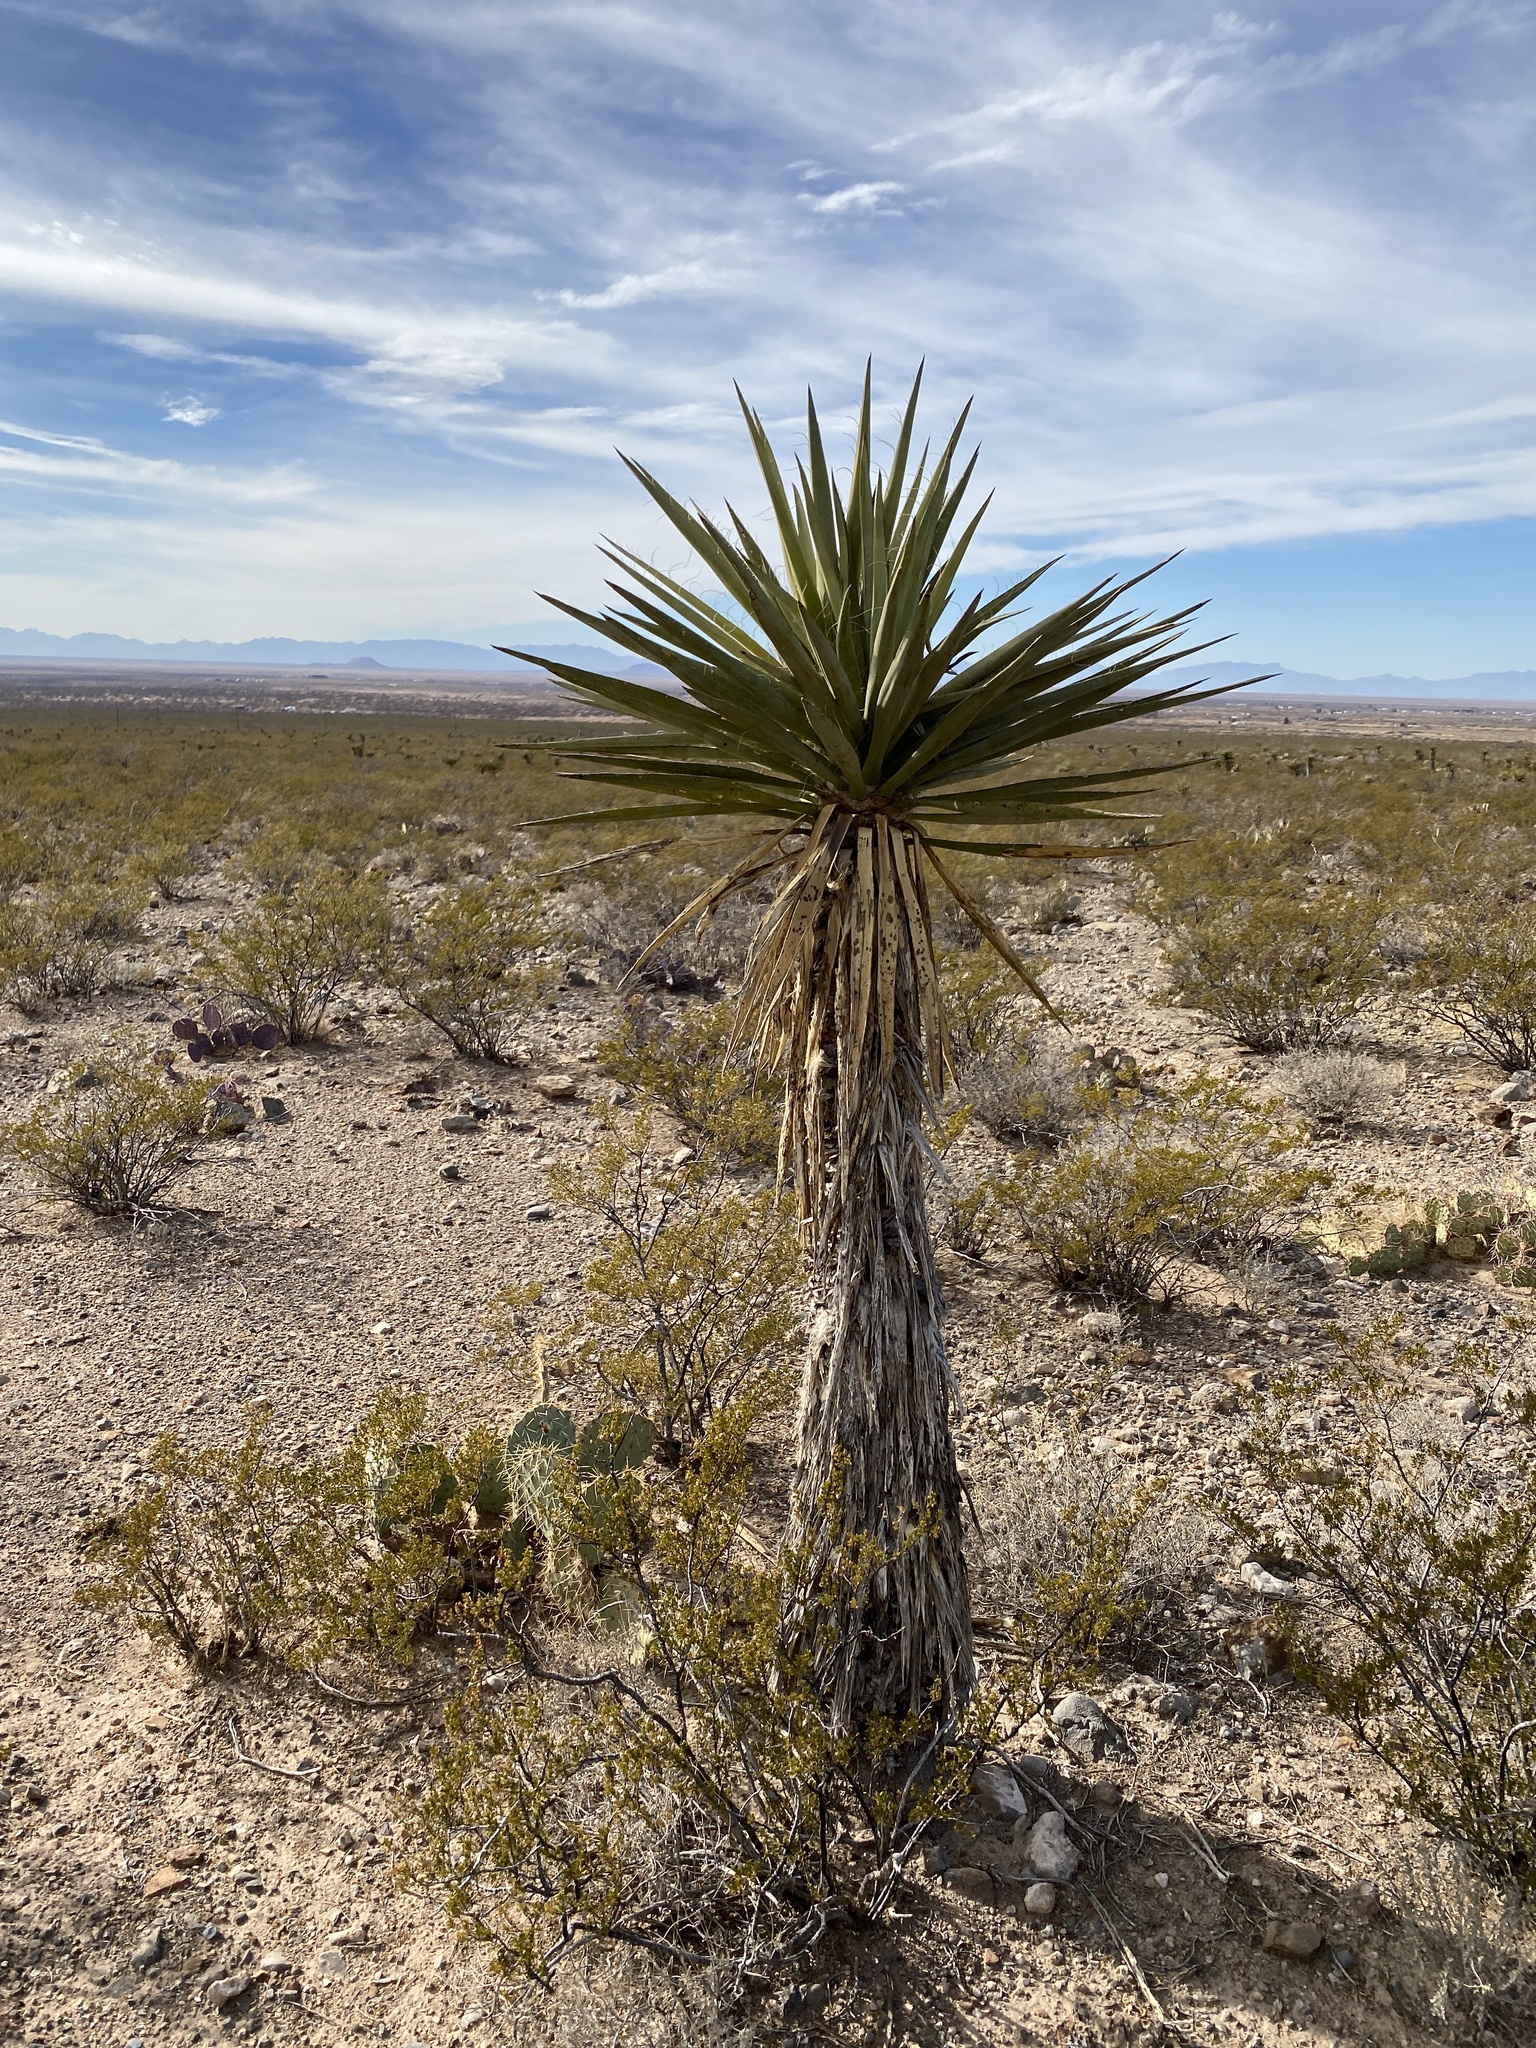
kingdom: Plantae
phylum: Tracheophyta
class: Liliopsida
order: Asparagales
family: Asparagaceae
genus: Yucca
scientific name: Yucca treculiana
